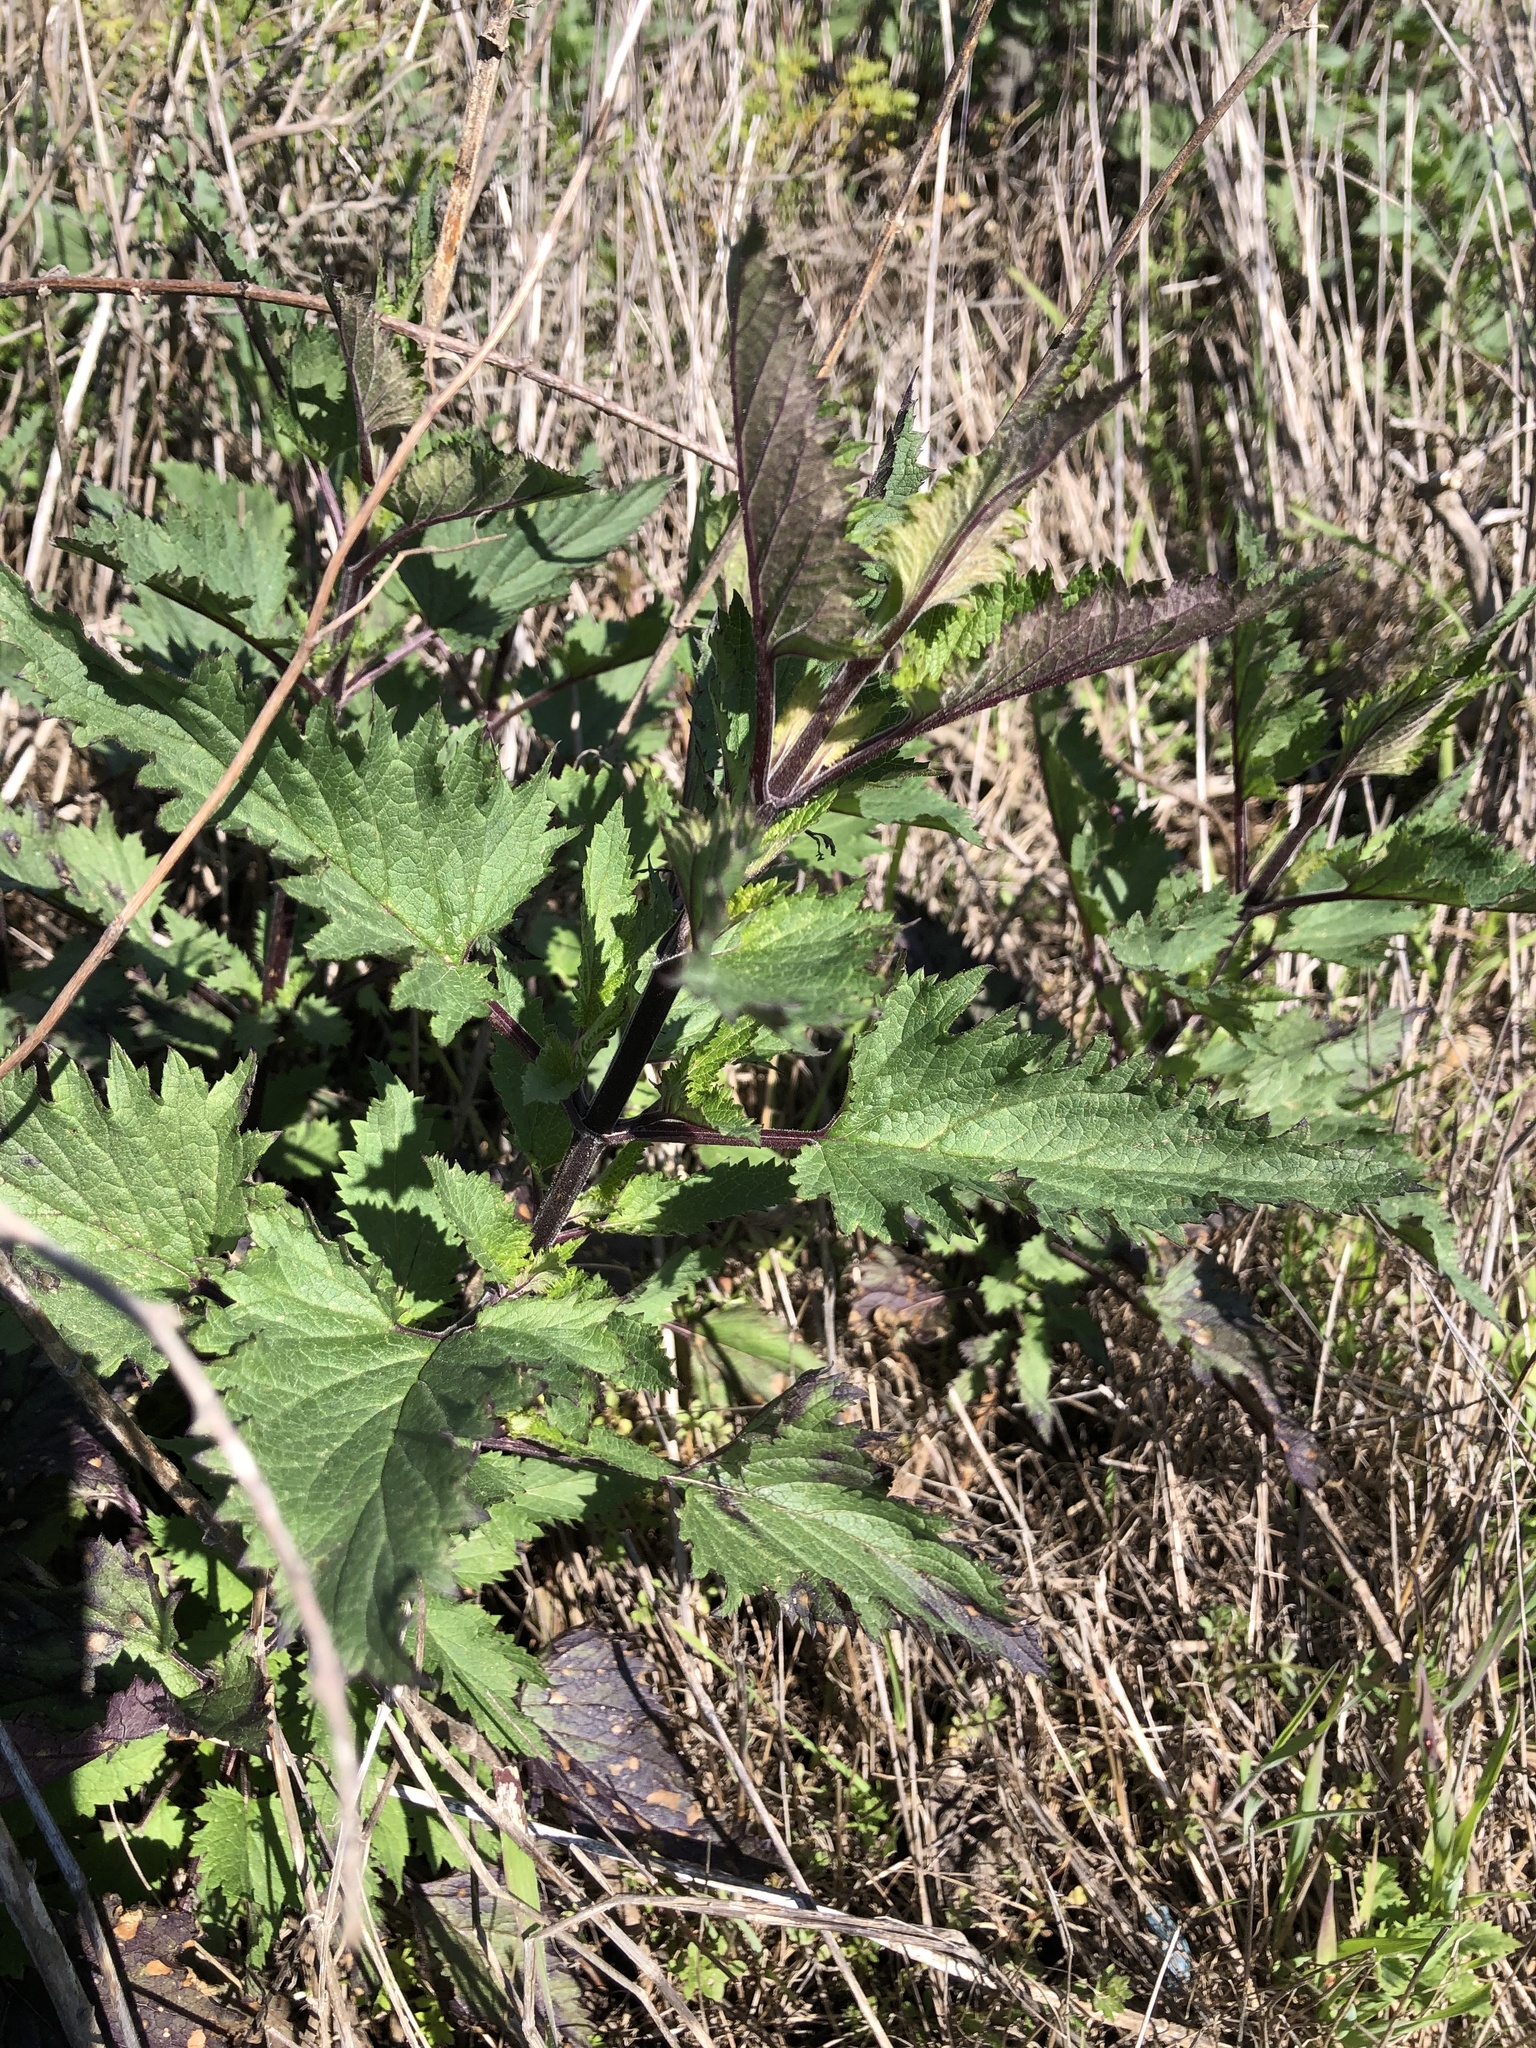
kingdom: Plantae
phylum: Tracheophyta
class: Magnoliopsida
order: Lamiales
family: Scrophulariaceae
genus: Scrophularia
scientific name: Scrophularia californica
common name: California figwort
